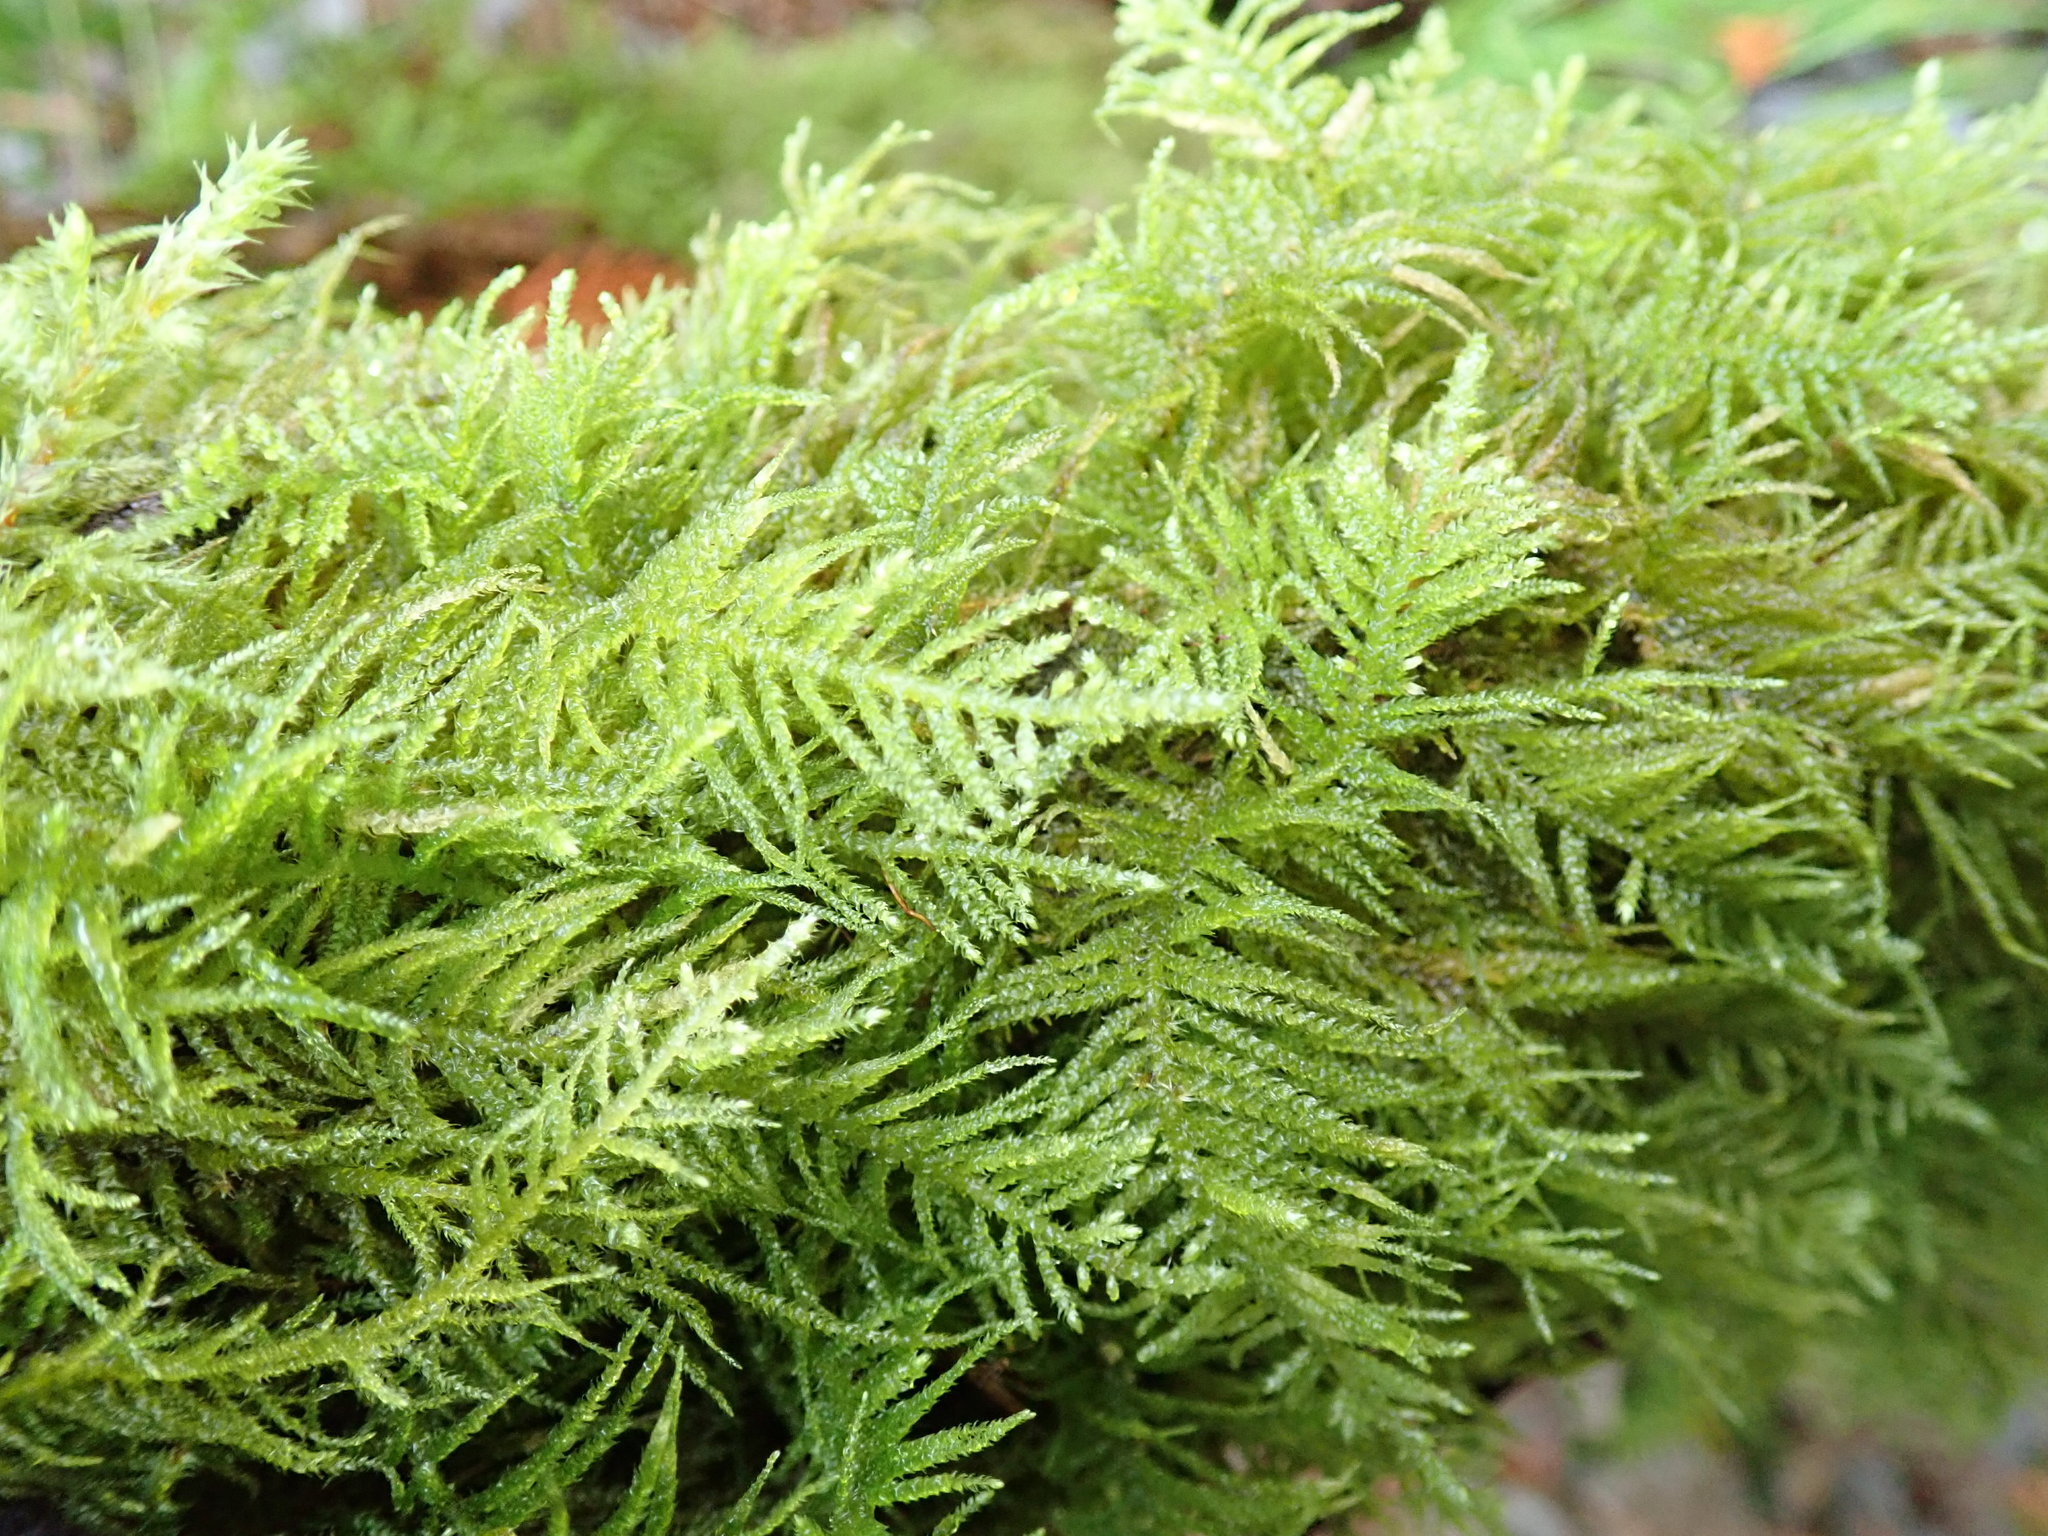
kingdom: Plantae
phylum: Bryophyta
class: Bryopsida
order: Hypnales
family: Brachytheciaceae
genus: Kindbergia
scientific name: Kindbergia oregana
